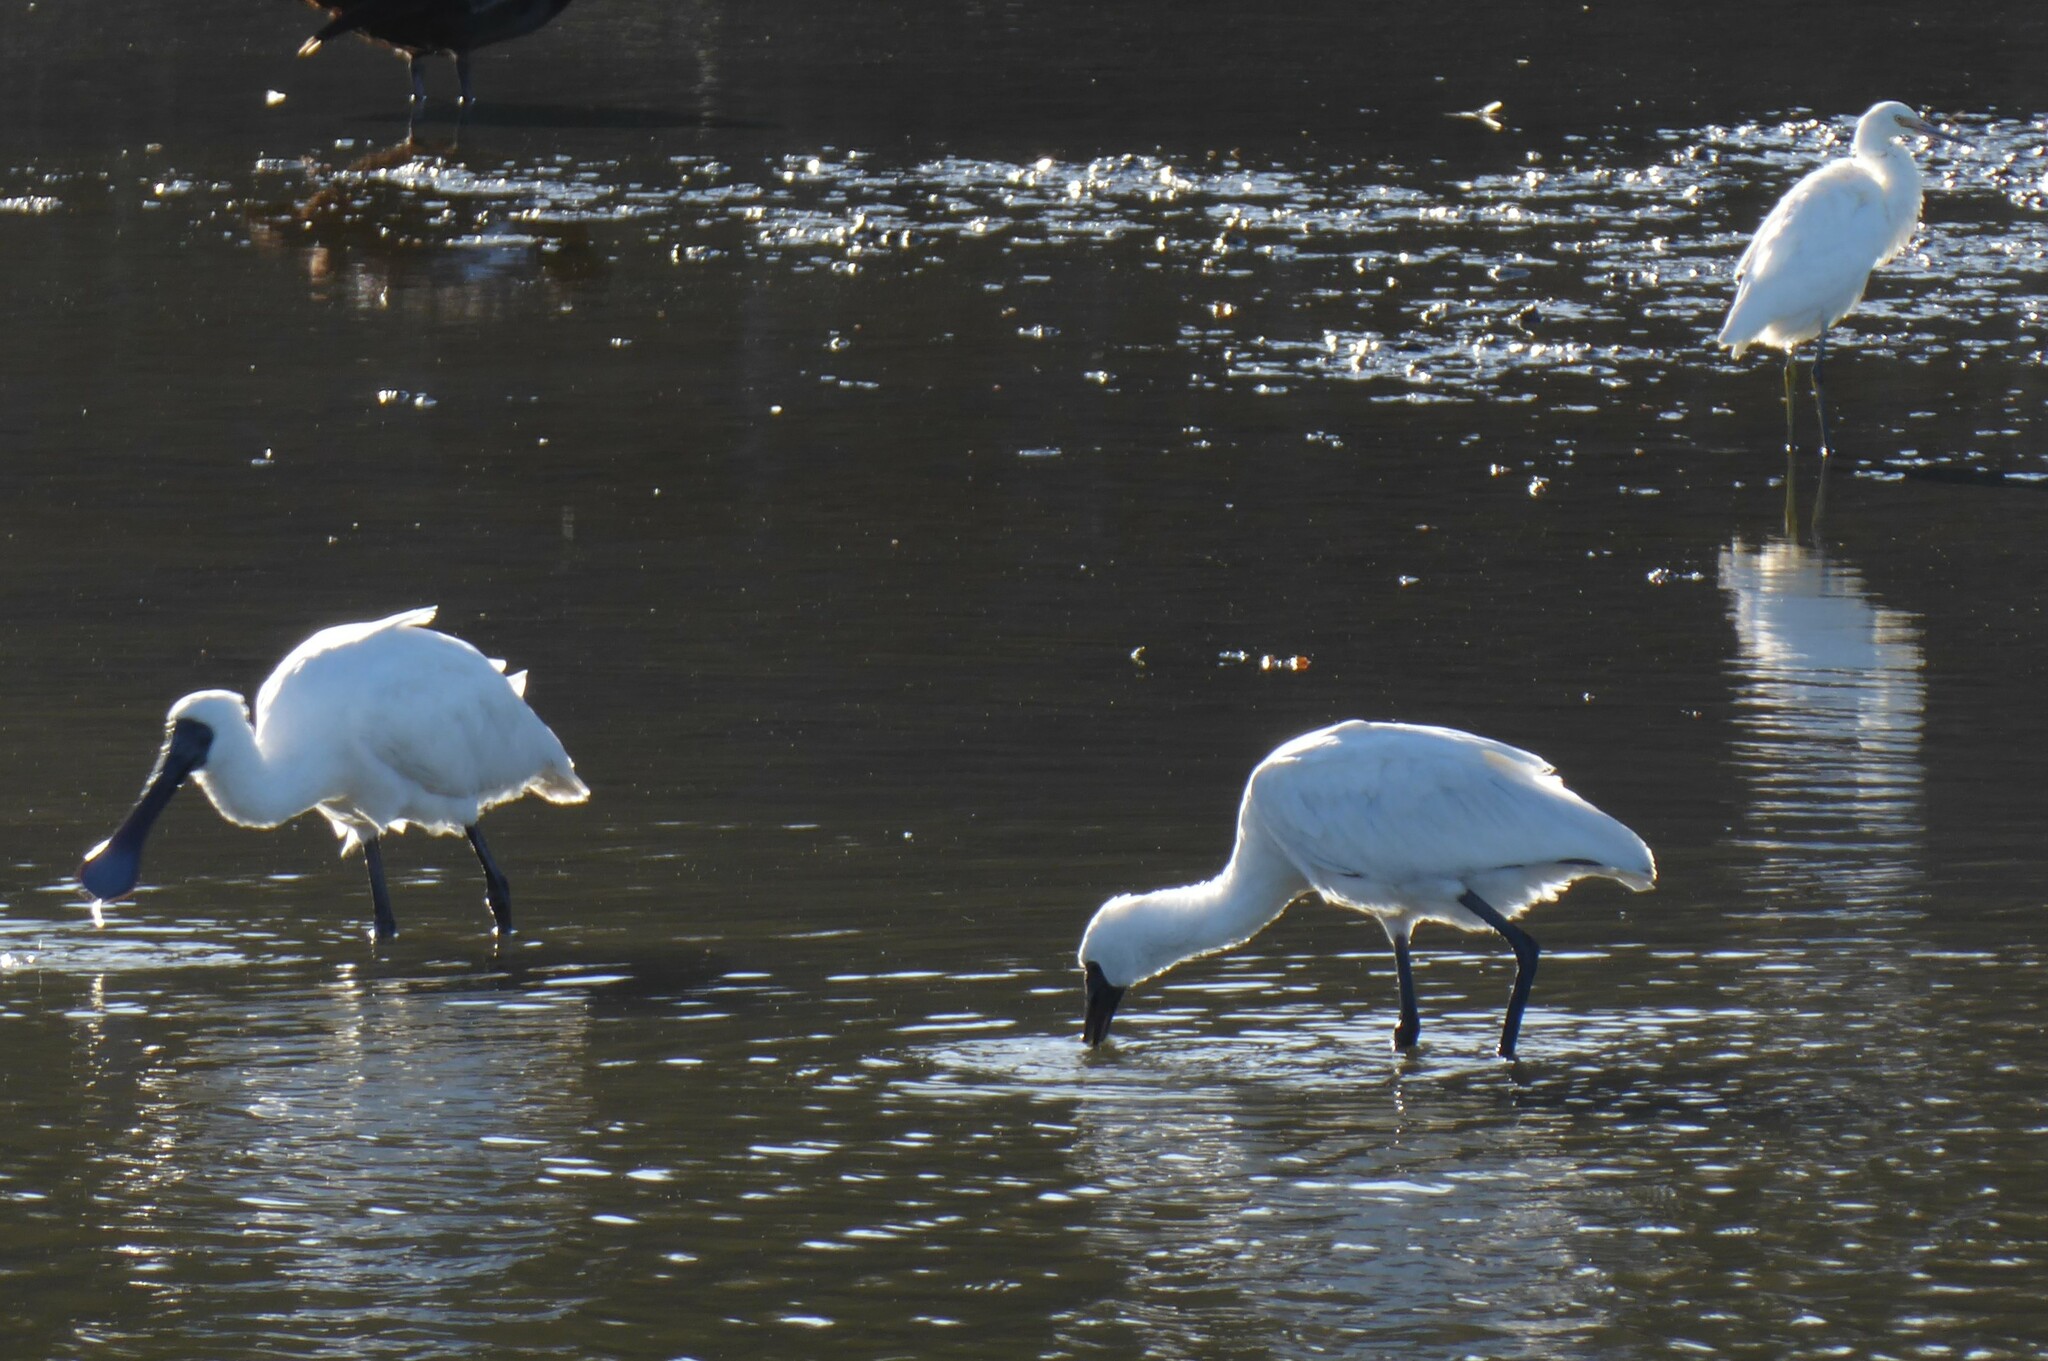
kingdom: Animalia
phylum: Chordata
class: Aves
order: Pelecaniformes
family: Threskiornithidae
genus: Platalea
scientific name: Platalea regia
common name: Royal spoonbill
